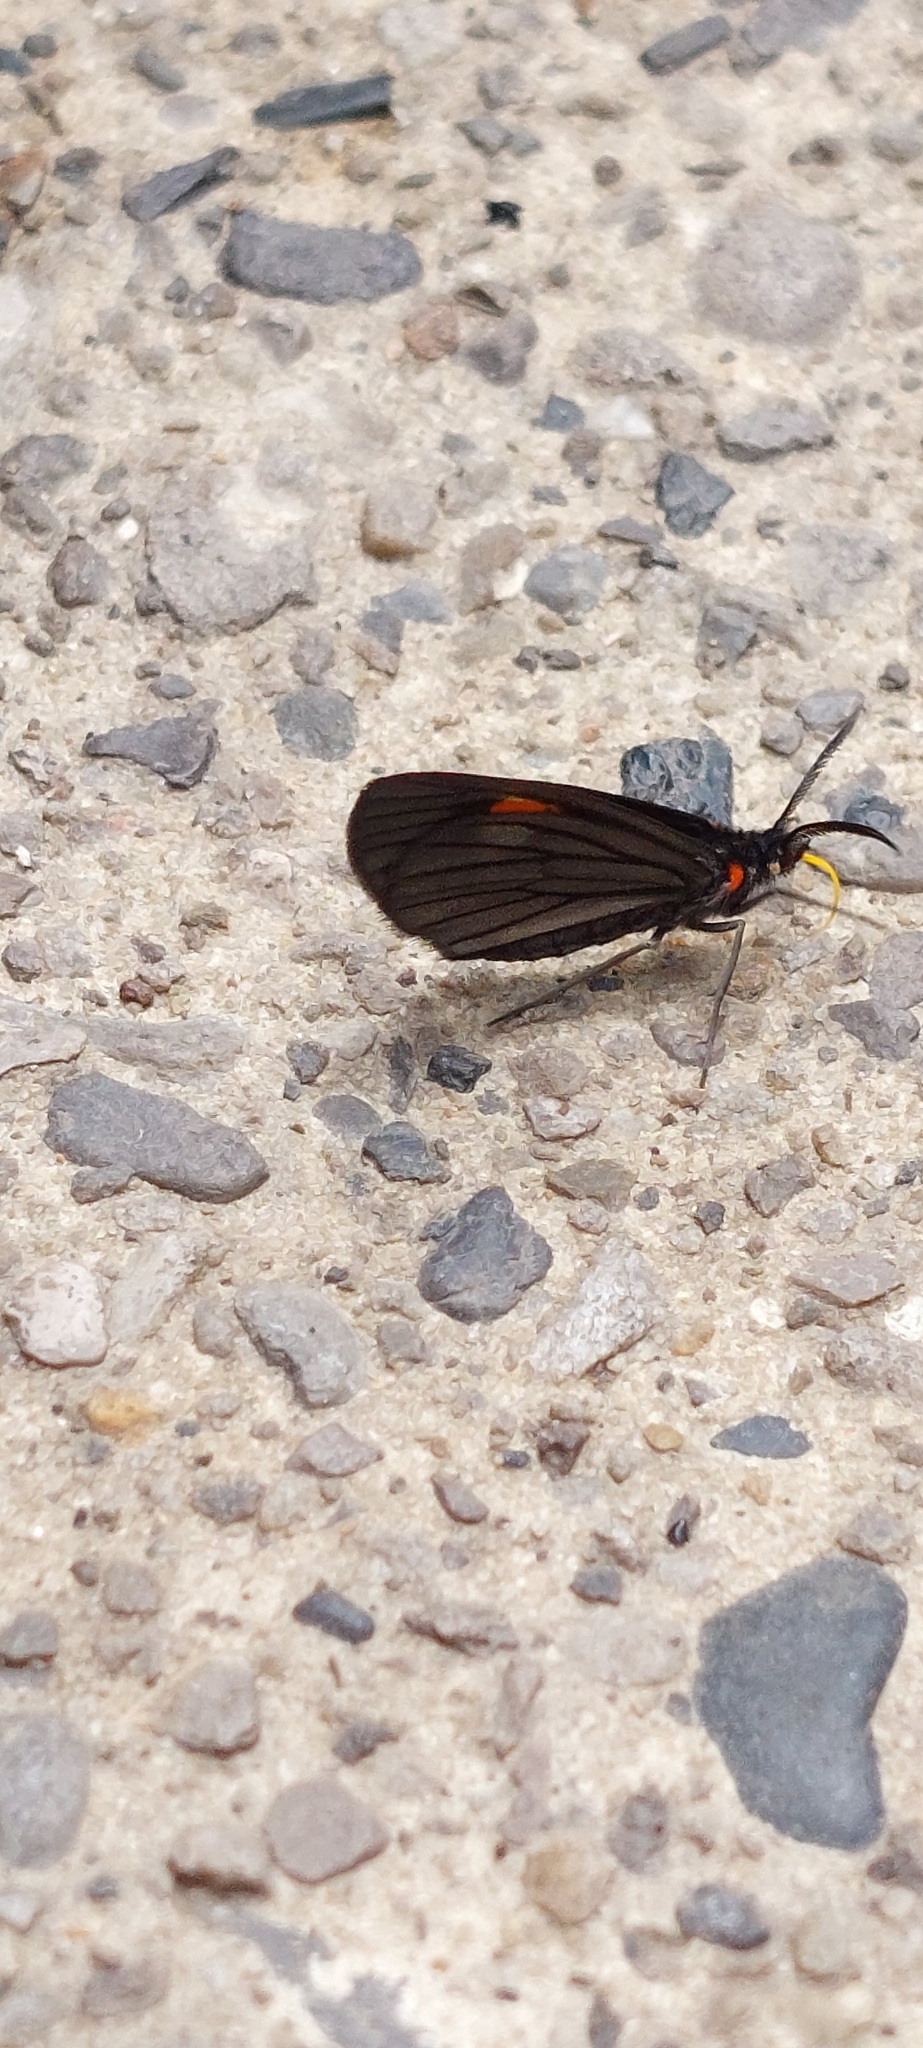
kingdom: Animalia
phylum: Arthropoda
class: Insecta
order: Lepidoptera
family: Geometridae
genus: Drymoea
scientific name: Drymoea
